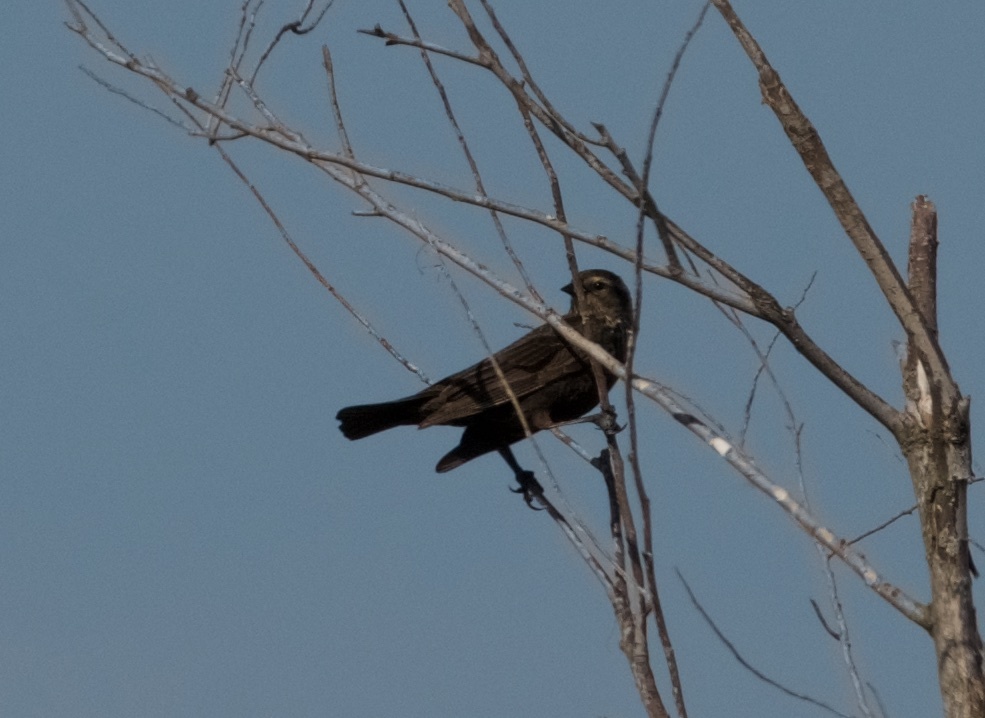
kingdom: Animalia
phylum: Chordata
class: Aves
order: Passeriformes
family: Icteridae
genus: Agelaius
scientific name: Agelaius phoeniceus
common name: Red-winged blackbird
